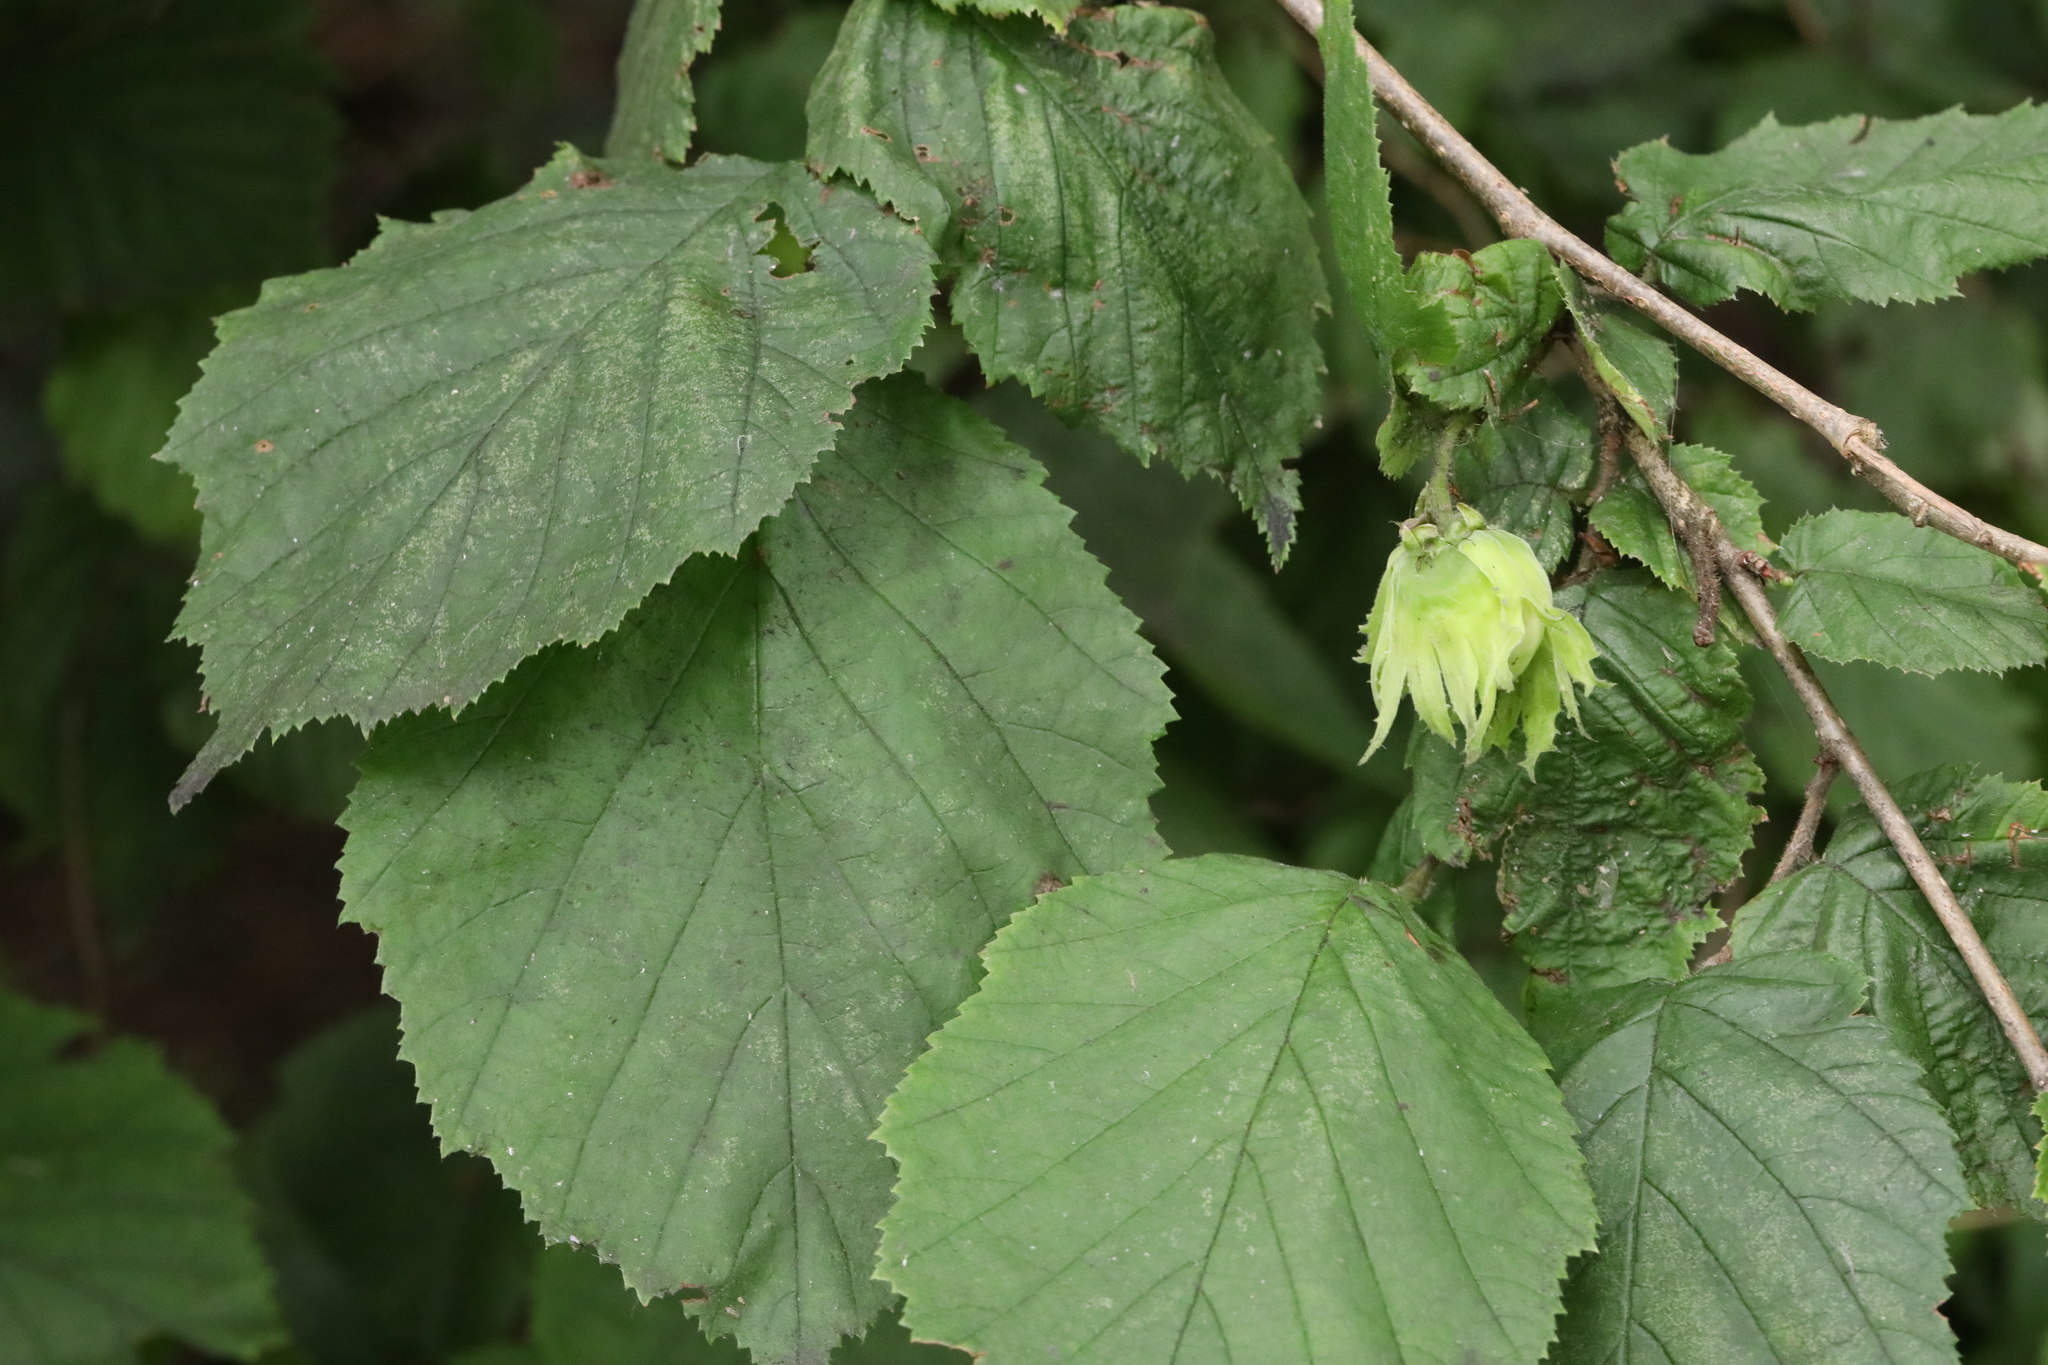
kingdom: Plantae
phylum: Tracheophyta
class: Magnoliopsida
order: Fagales
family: Betulaceae
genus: Corylus
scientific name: Corylus avellana
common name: European hazel
